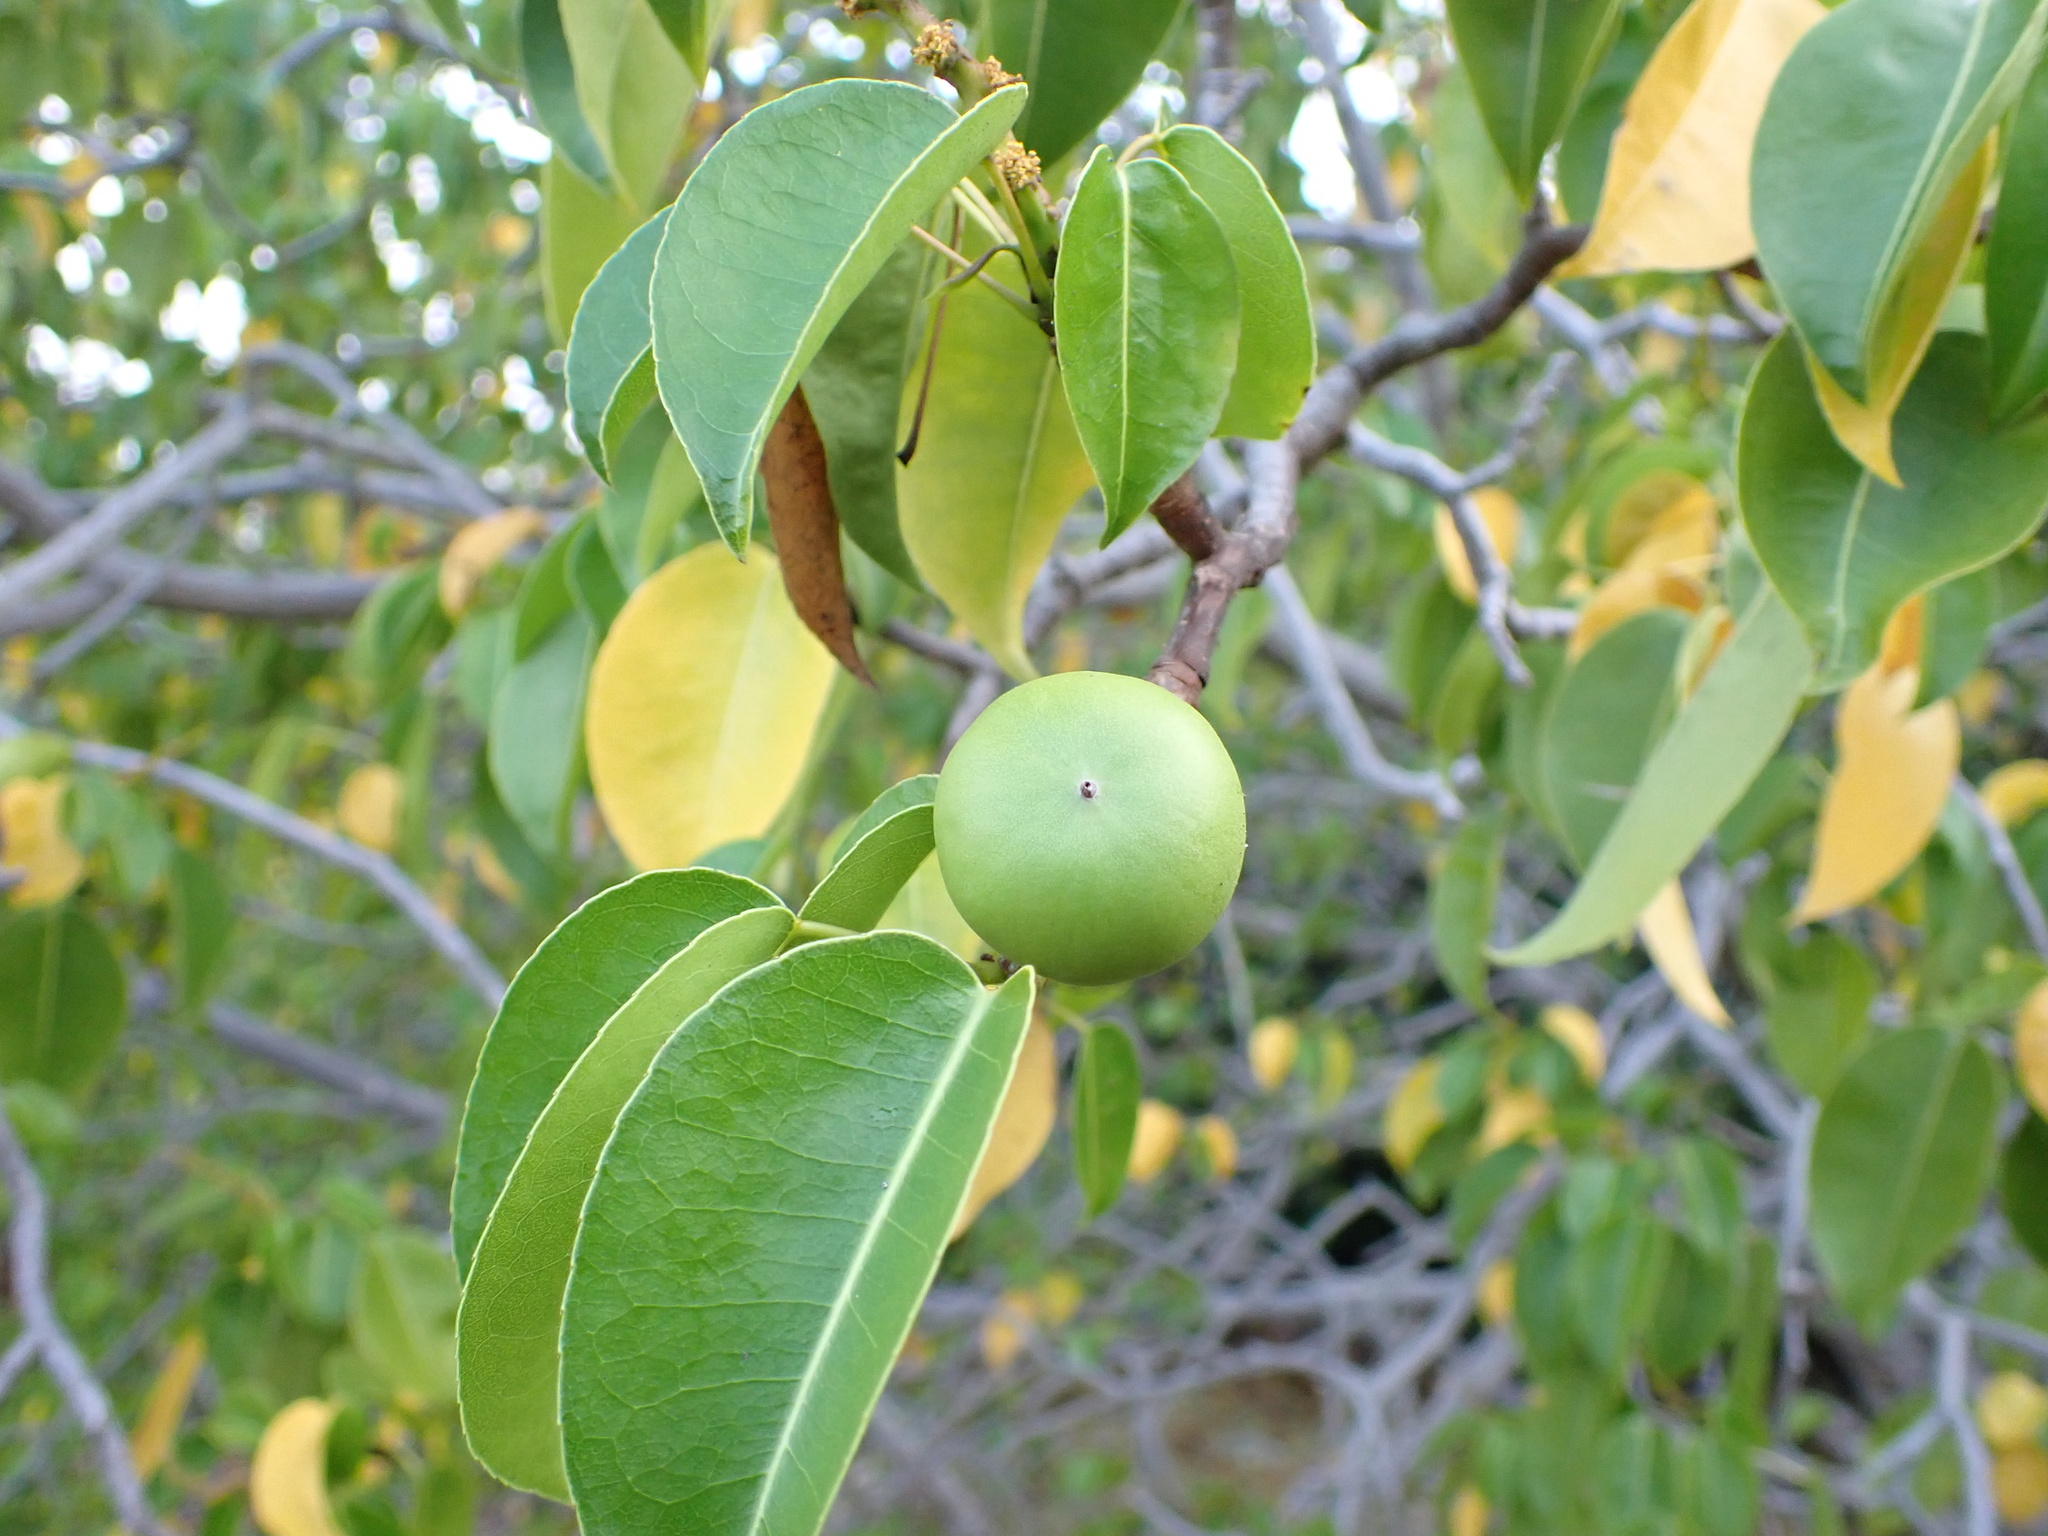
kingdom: Plantae
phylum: Tracheophyta
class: Magnoliopsida
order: Malpighiales
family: Euphorbiaceae
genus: Hippomane
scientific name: Hippomane mancinella
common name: Manchineel
